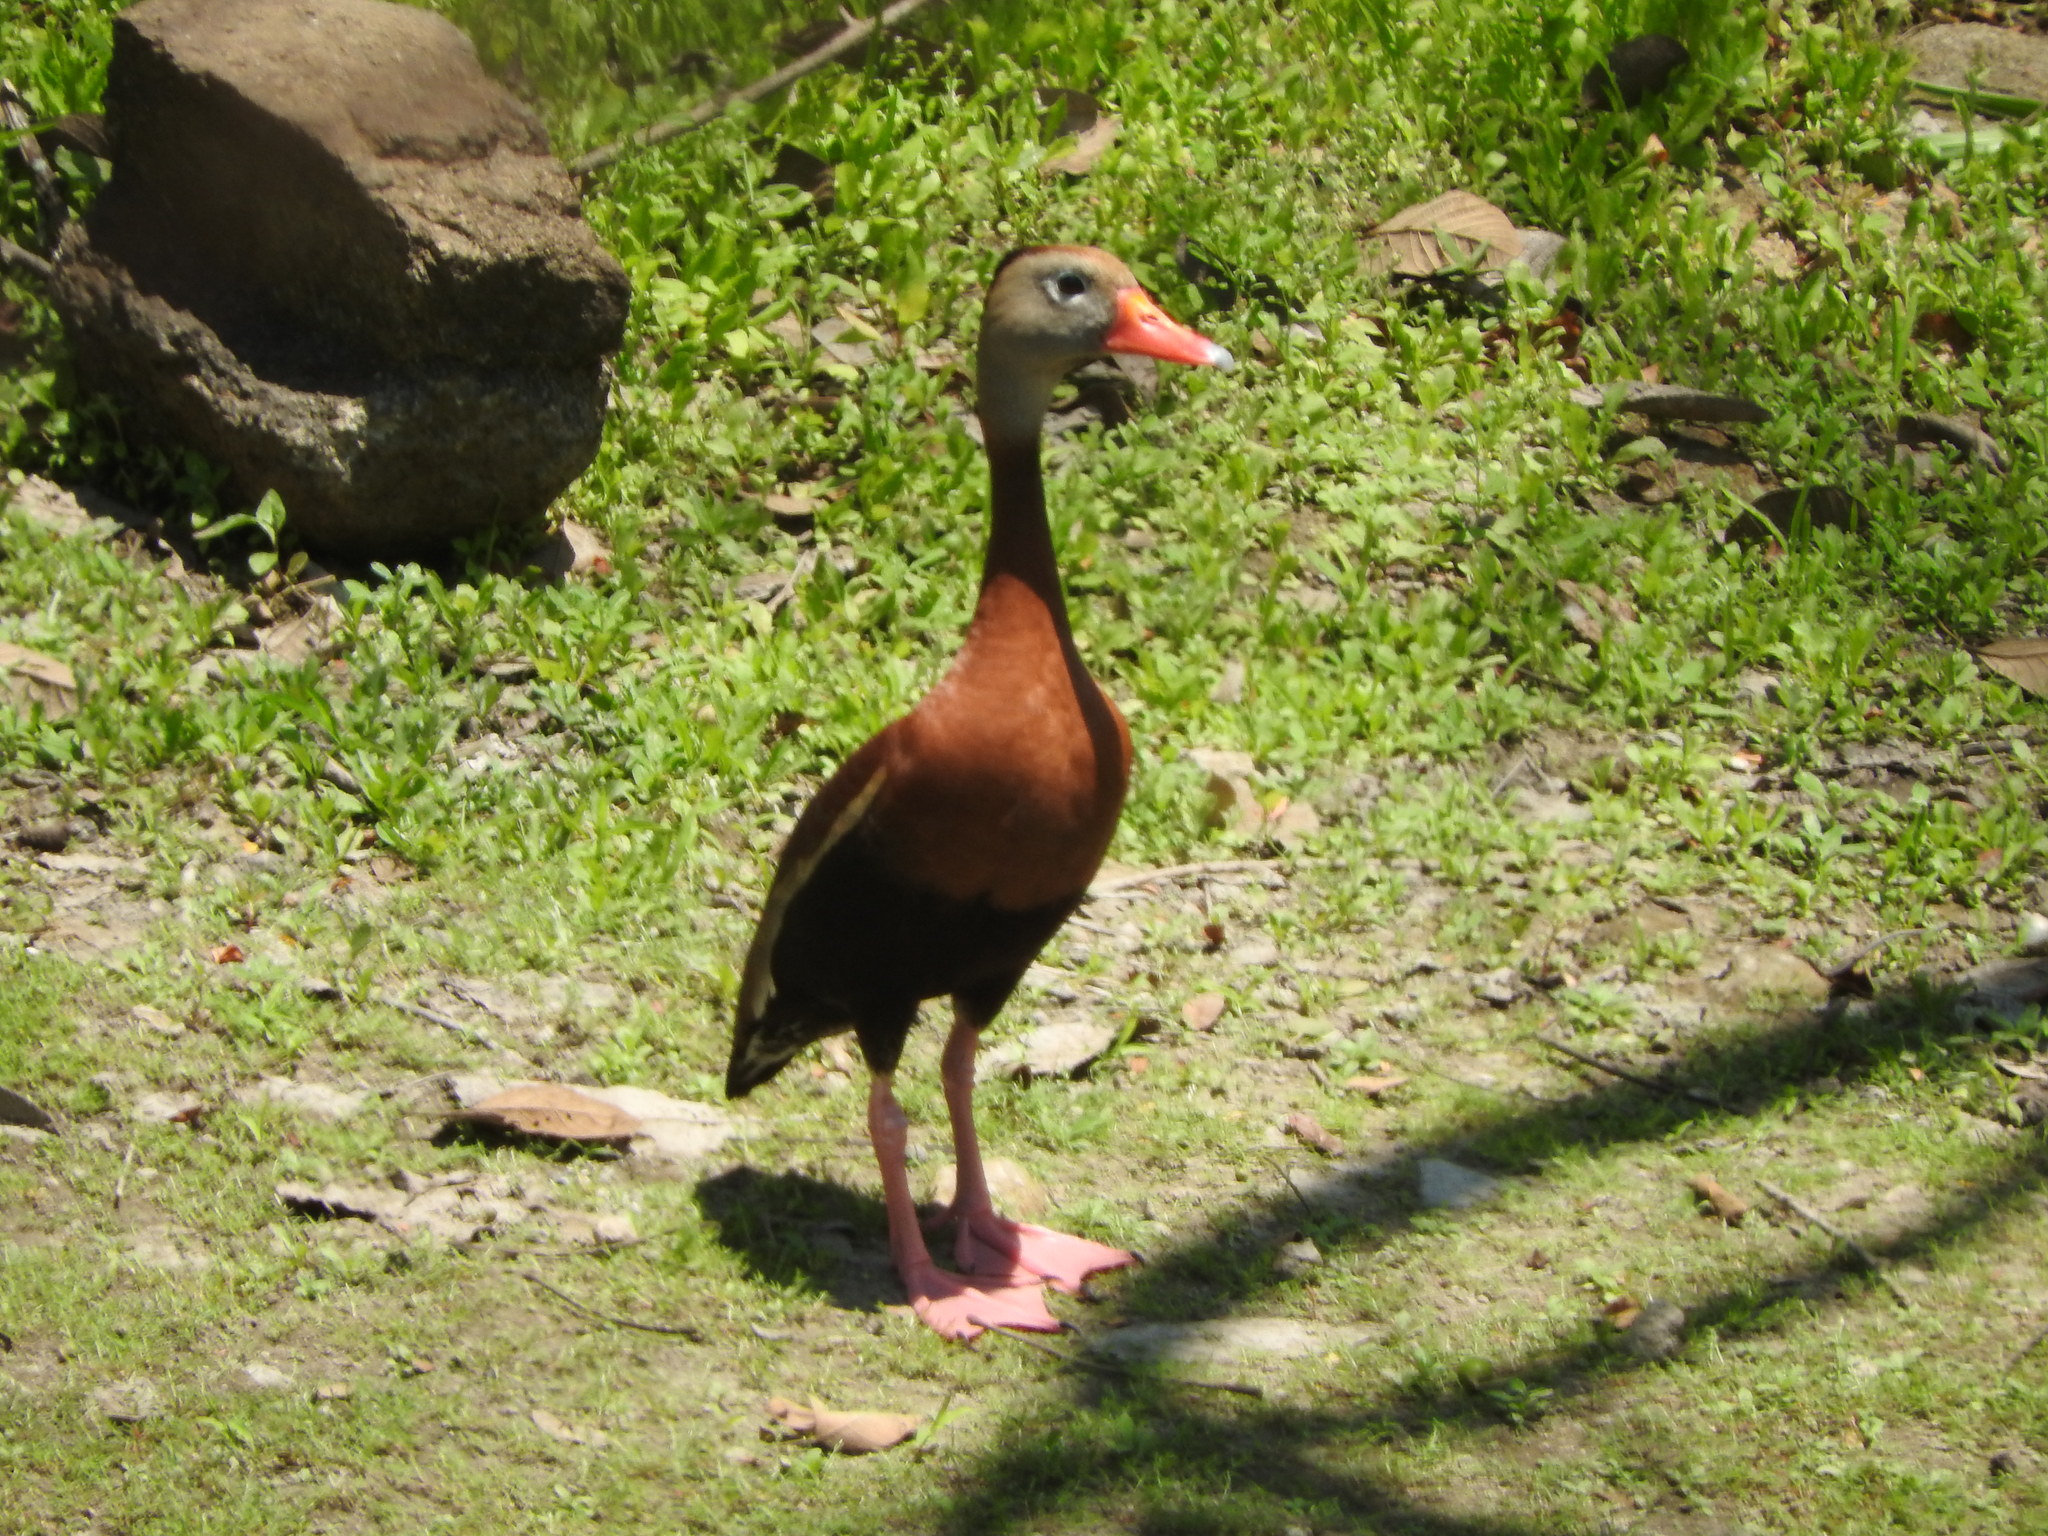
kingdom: Animalia
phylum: Chordata
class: Aves
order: Anseriformes
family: Anatidae
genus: Dendrocygna
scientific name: Dendrocygna autumnalis
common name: Black-bellied whistling duck
